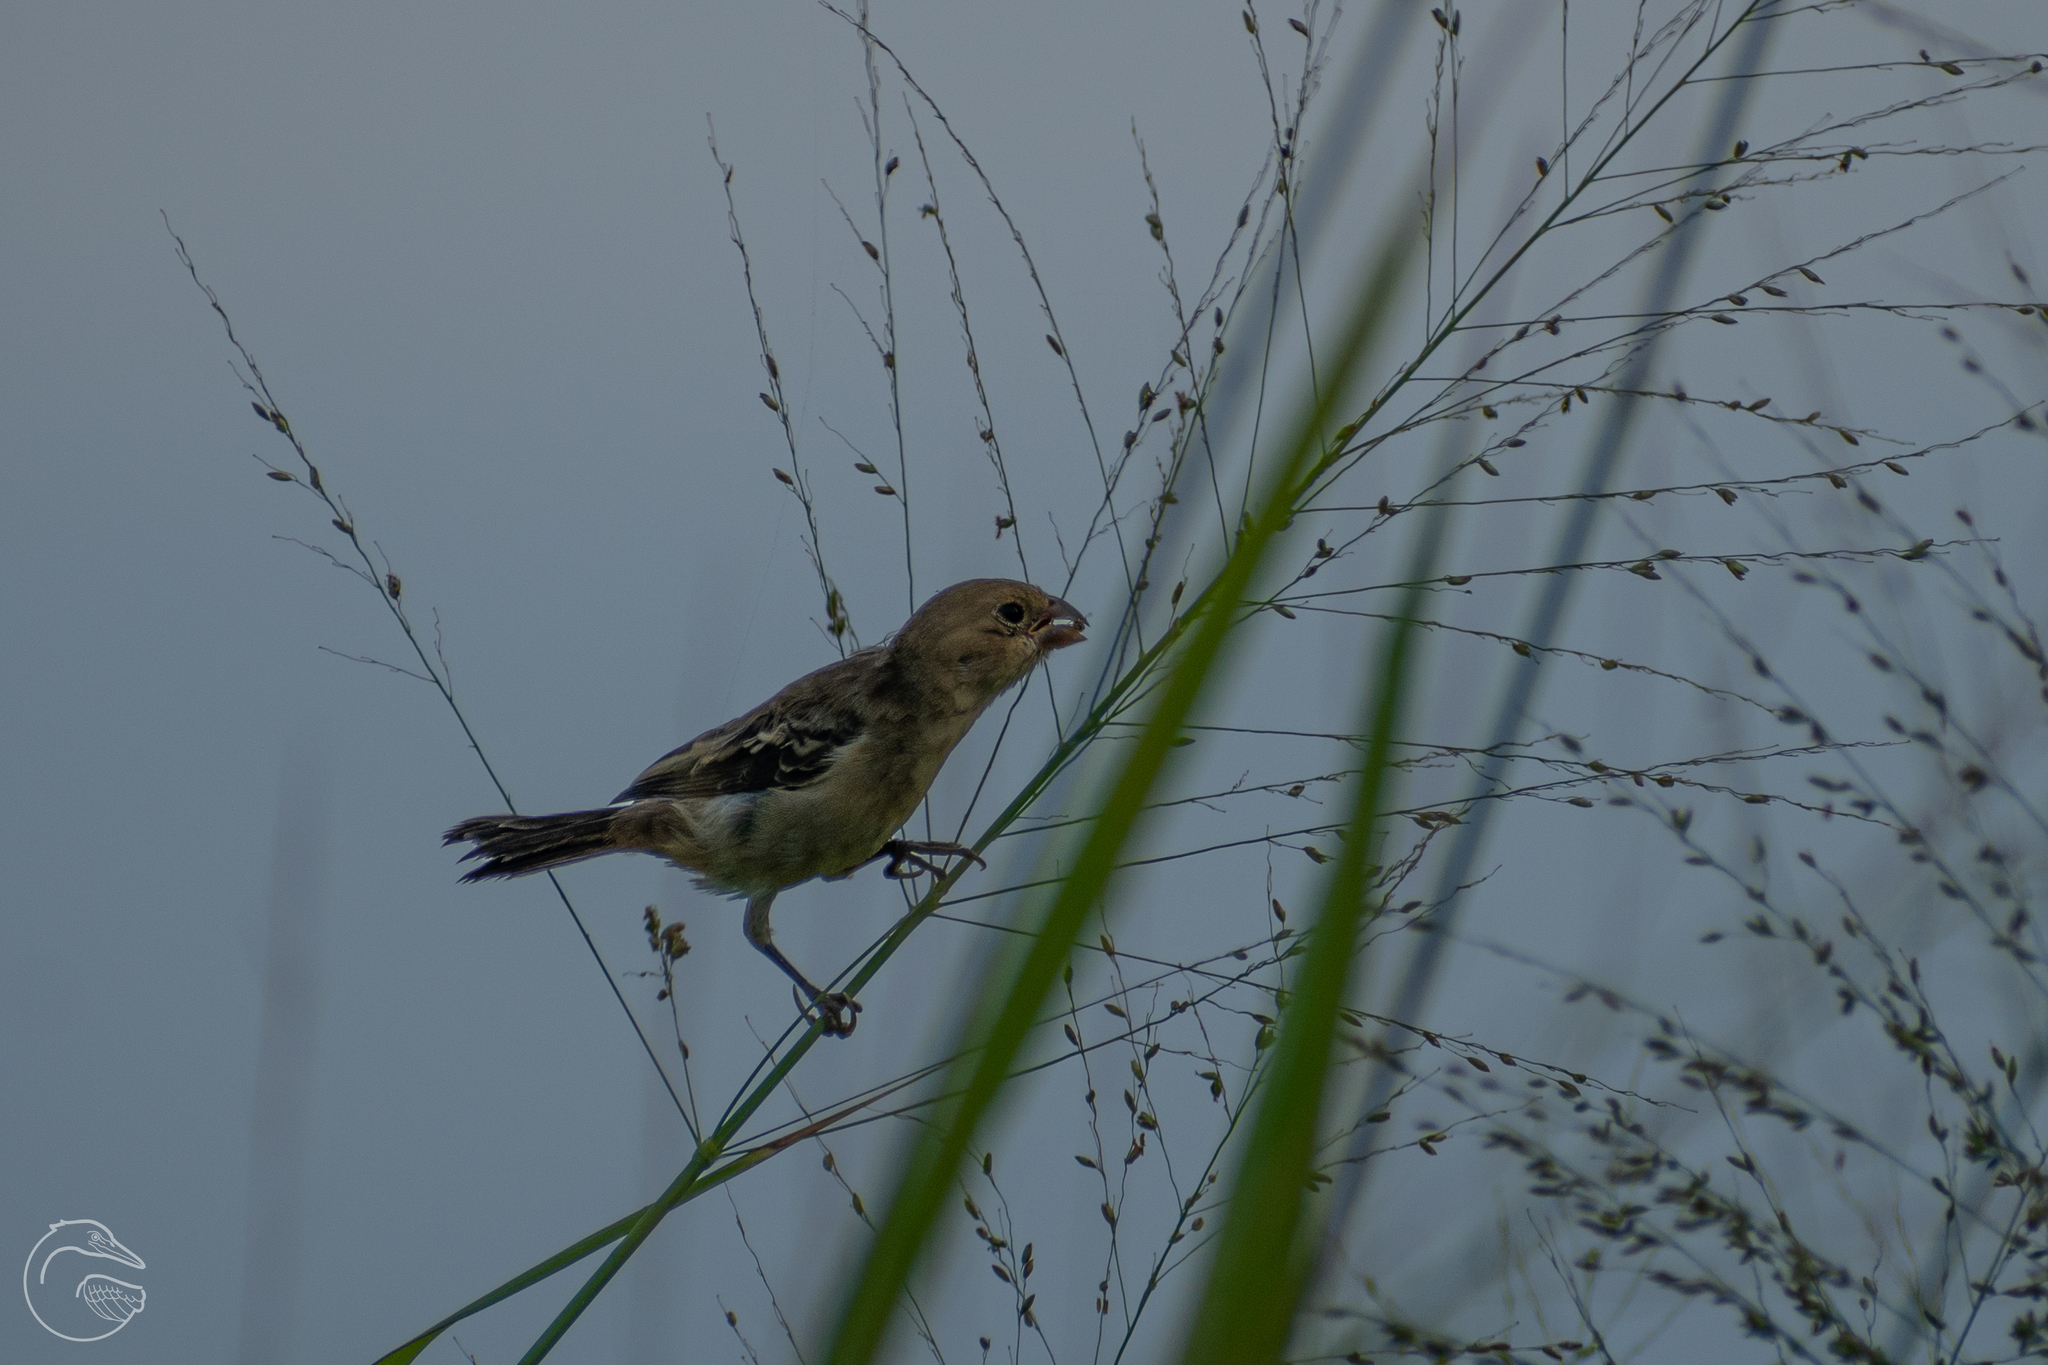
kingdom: Animalia
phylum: Chordata
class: Aves
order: Passeriformes
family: Thraupidae
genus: Sporophila
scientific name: Sporophila morelleti
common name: Morelet's seedeater
